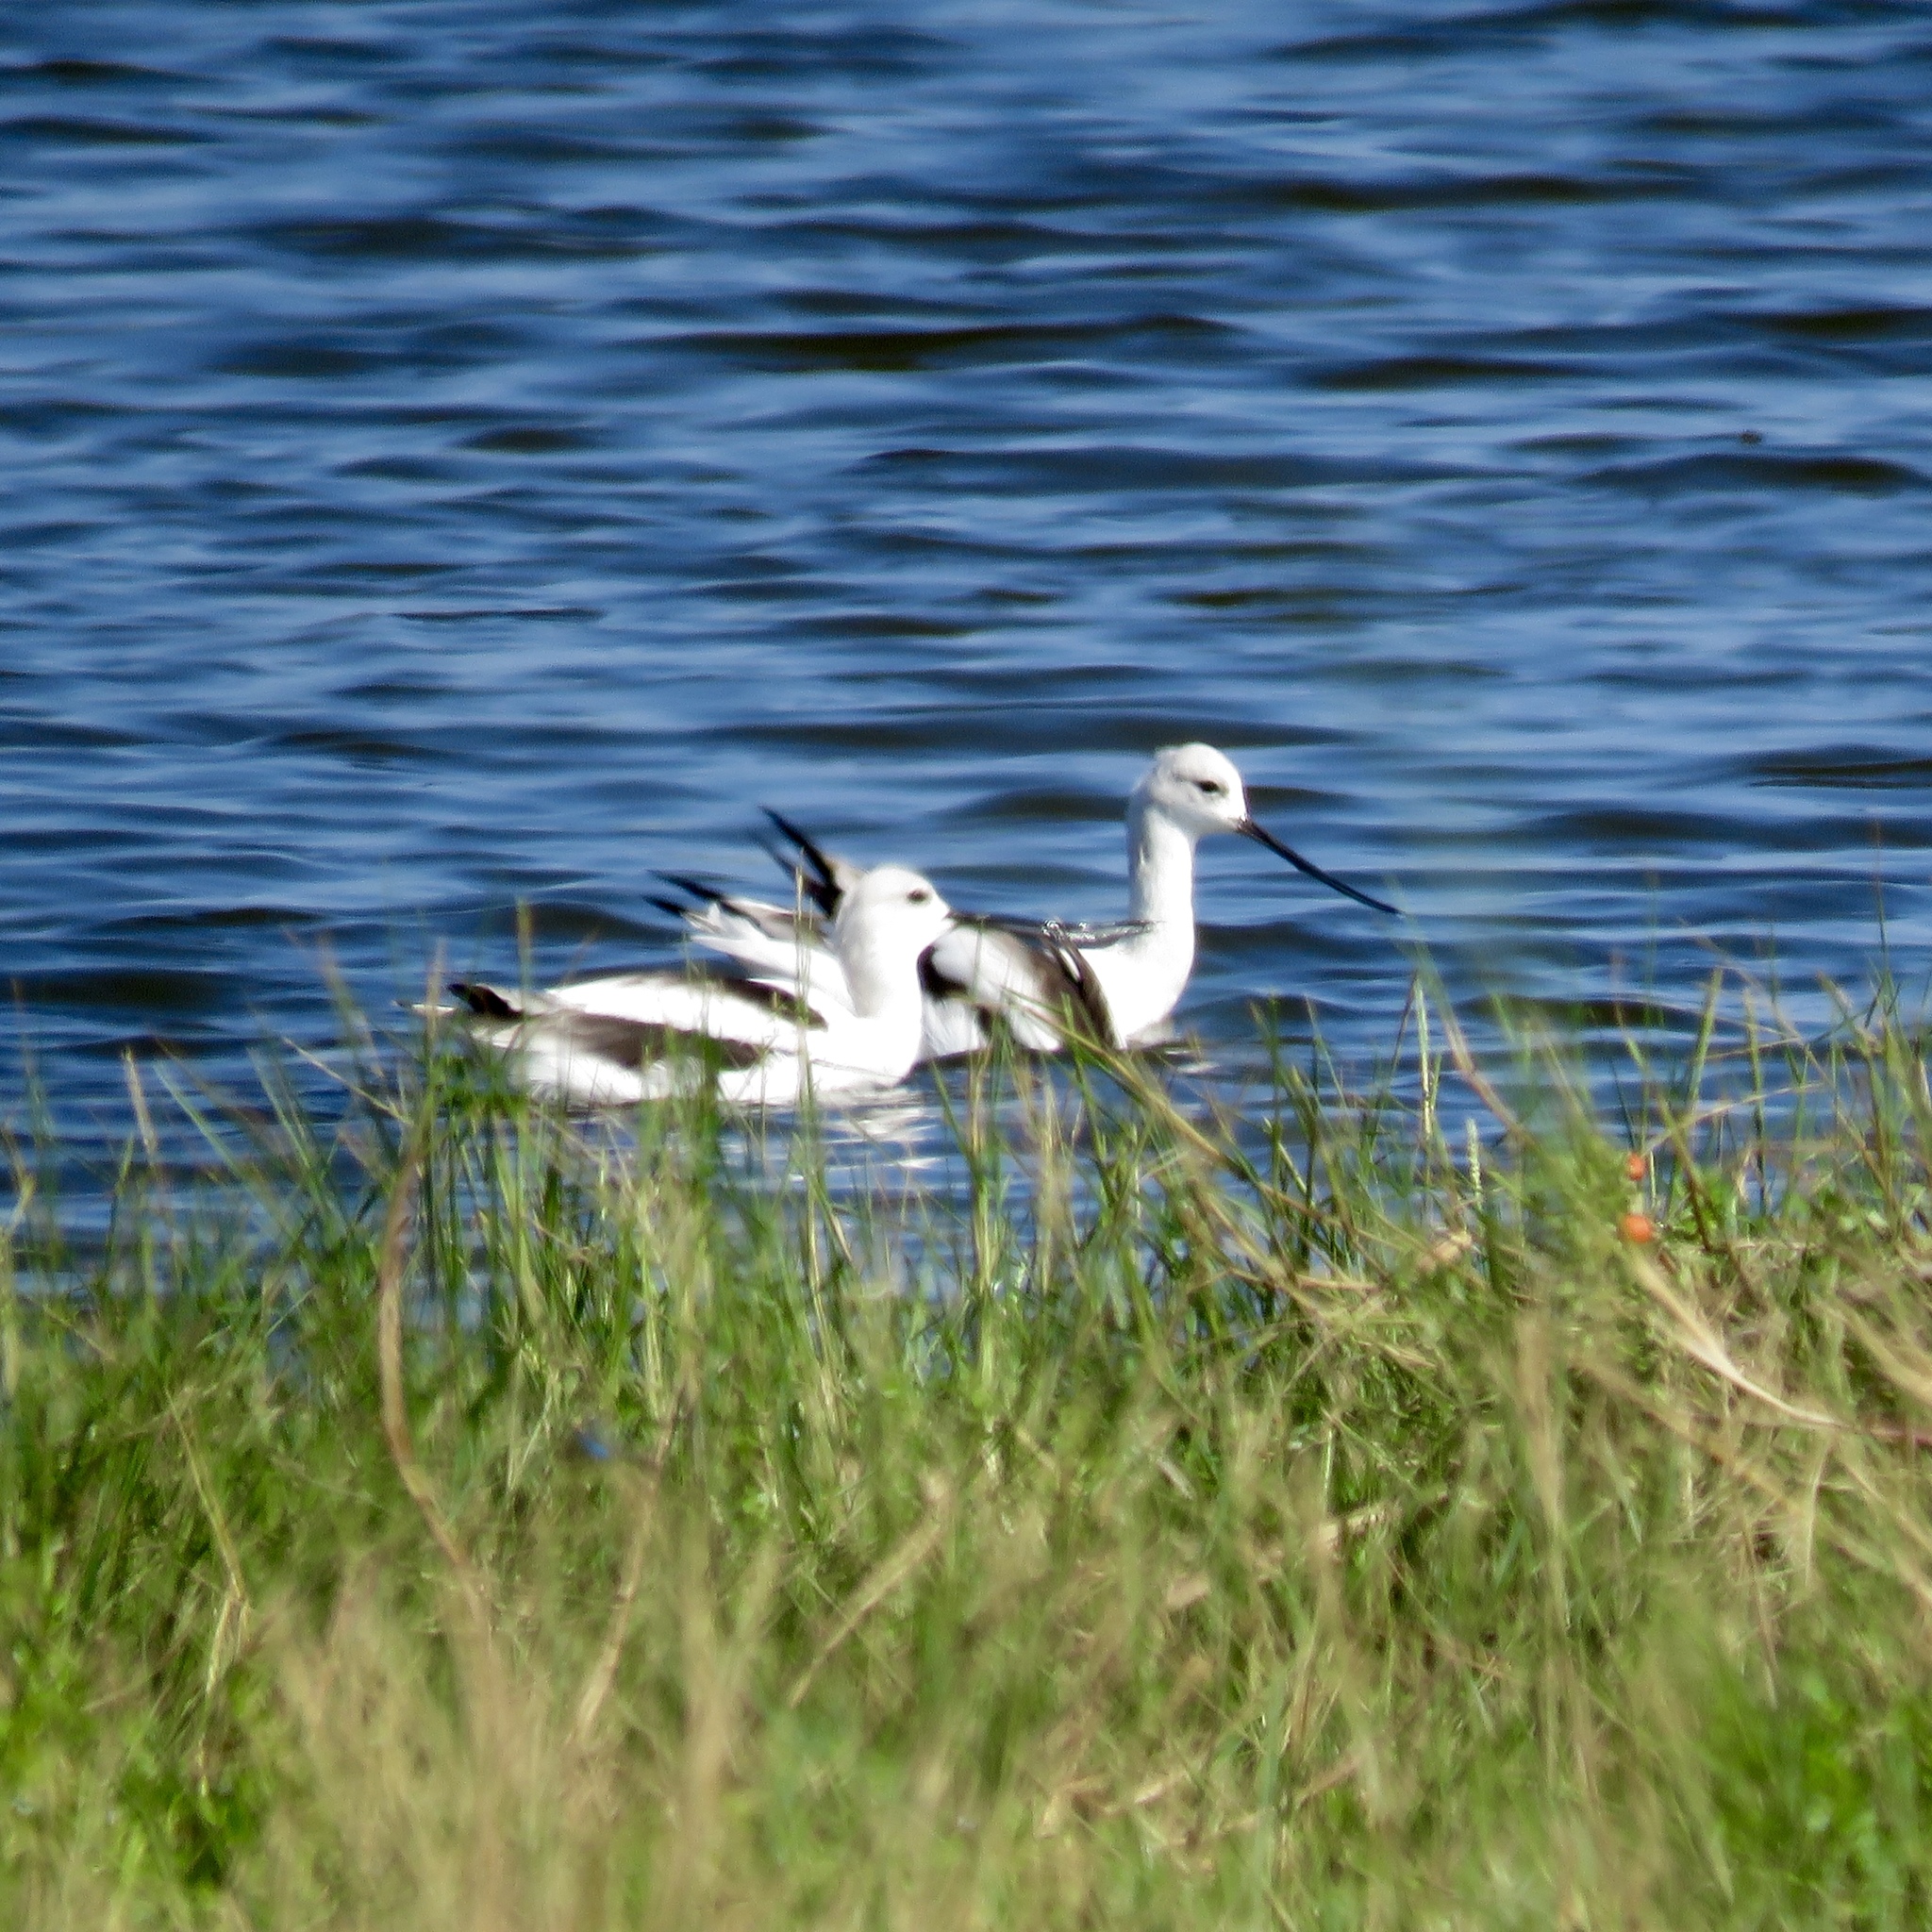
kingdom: Animalia
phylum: Chordata
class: Aves
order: Charadriiformes
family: Recurvirostridae
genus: Recurvirostra
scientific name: Recurvirostra americana
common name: American avocet
